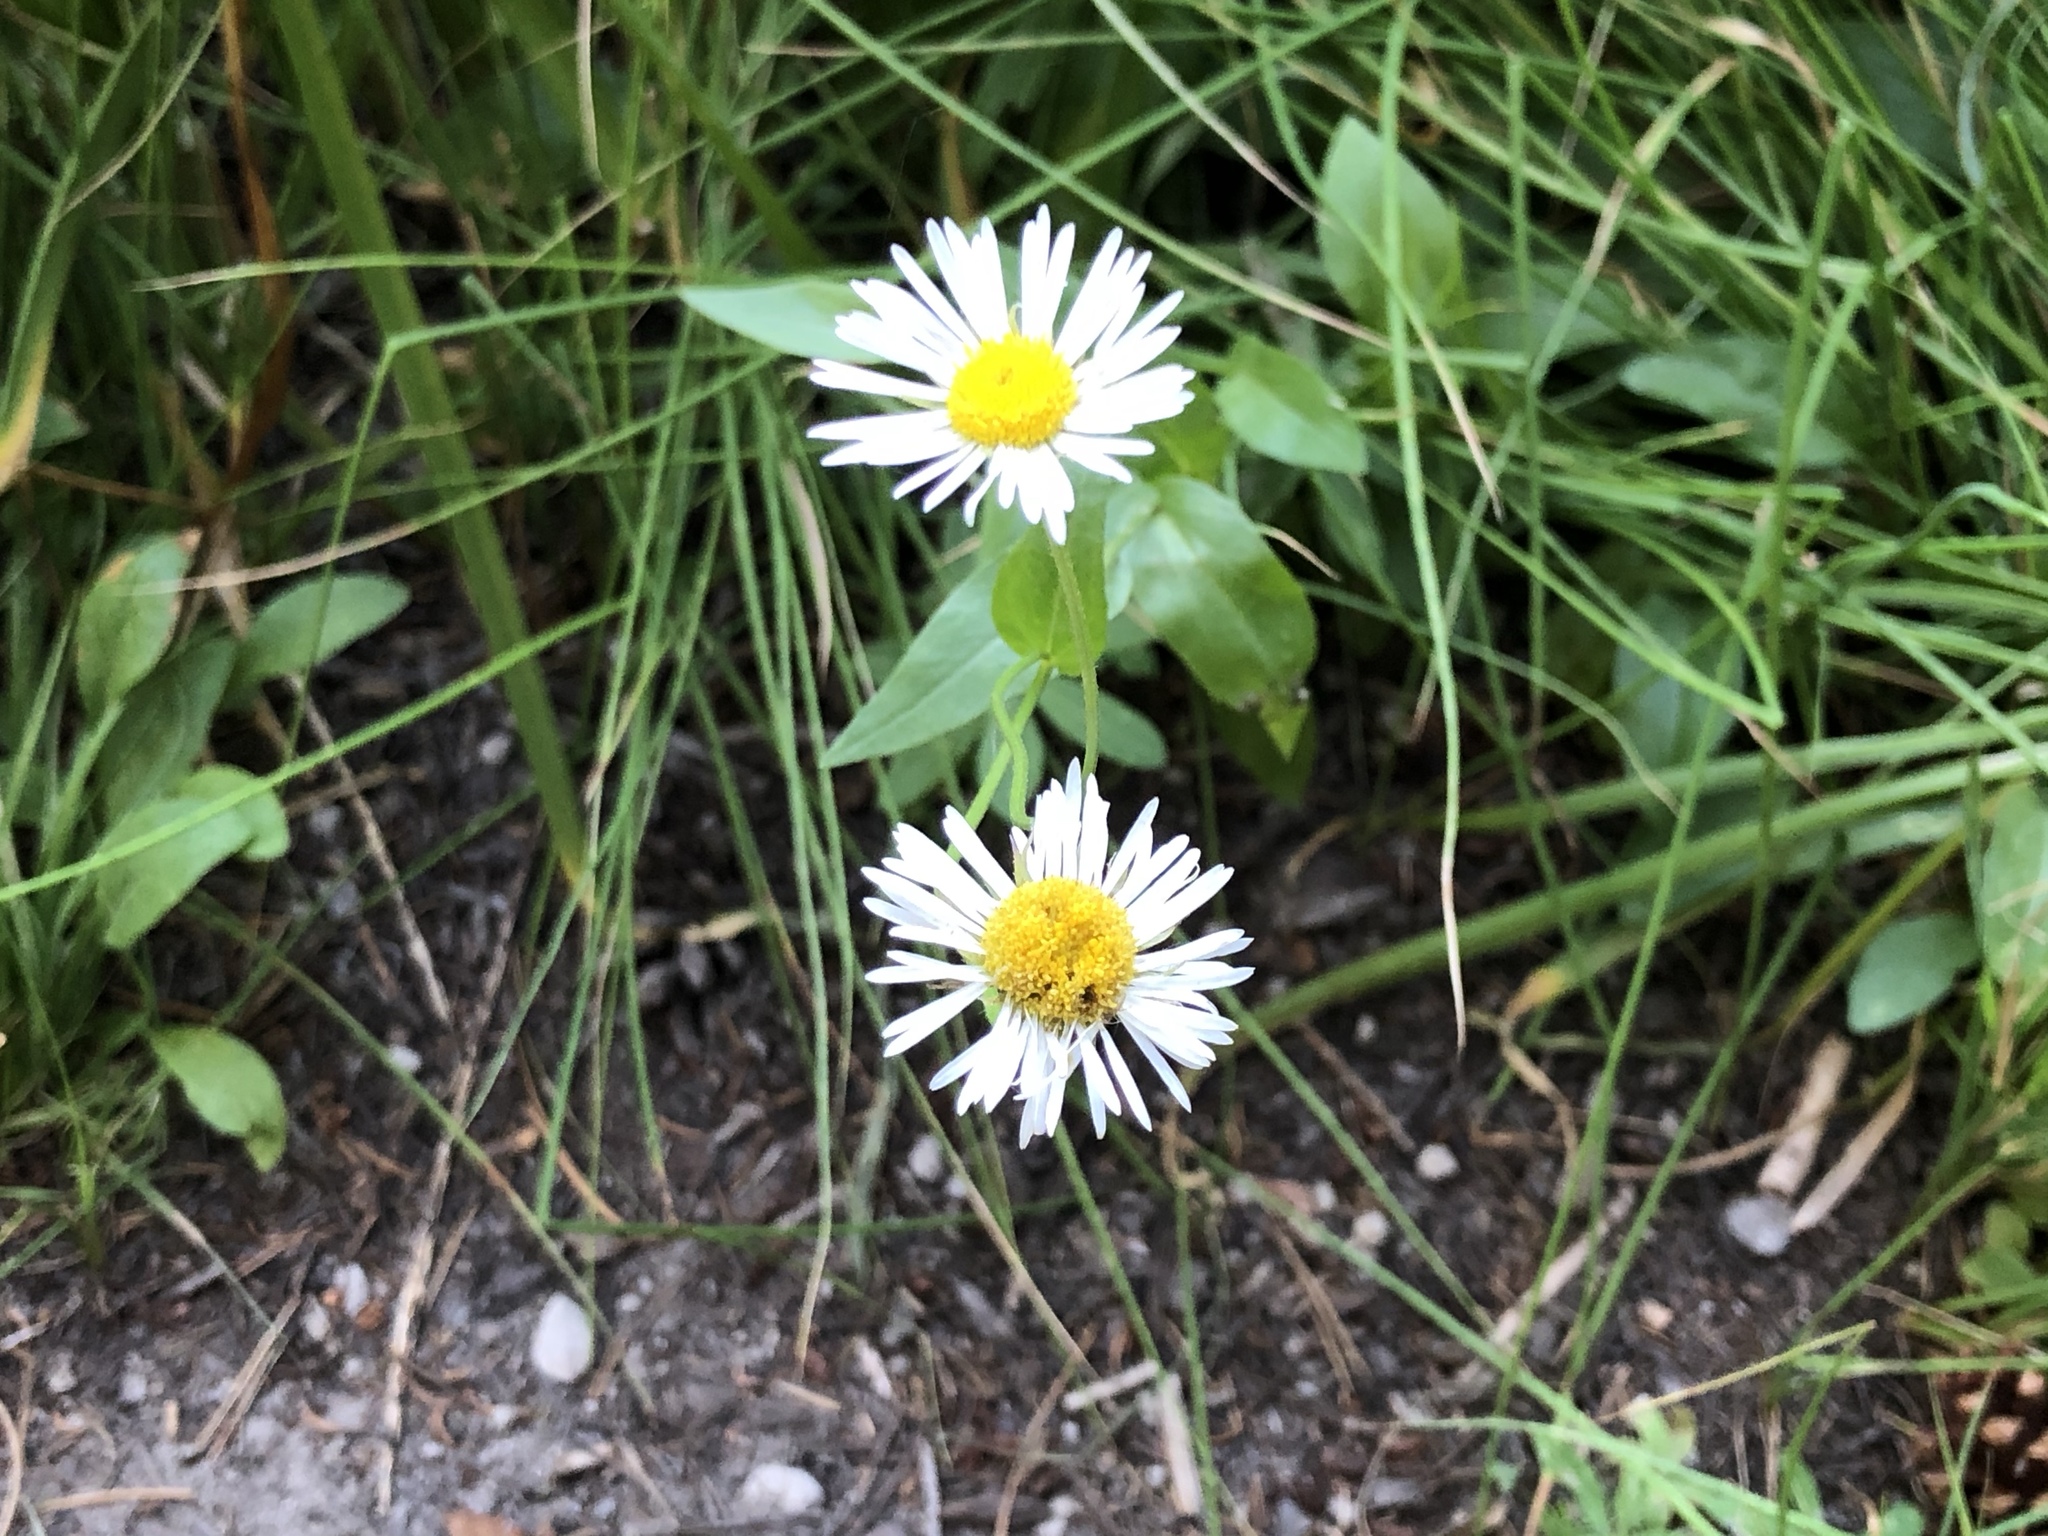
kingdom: Plantae
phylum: Tracheophyta
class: Magnoliopsida
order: Asterales
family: Asteraceae
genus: Erigeron
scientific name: Erigeron coulteri
